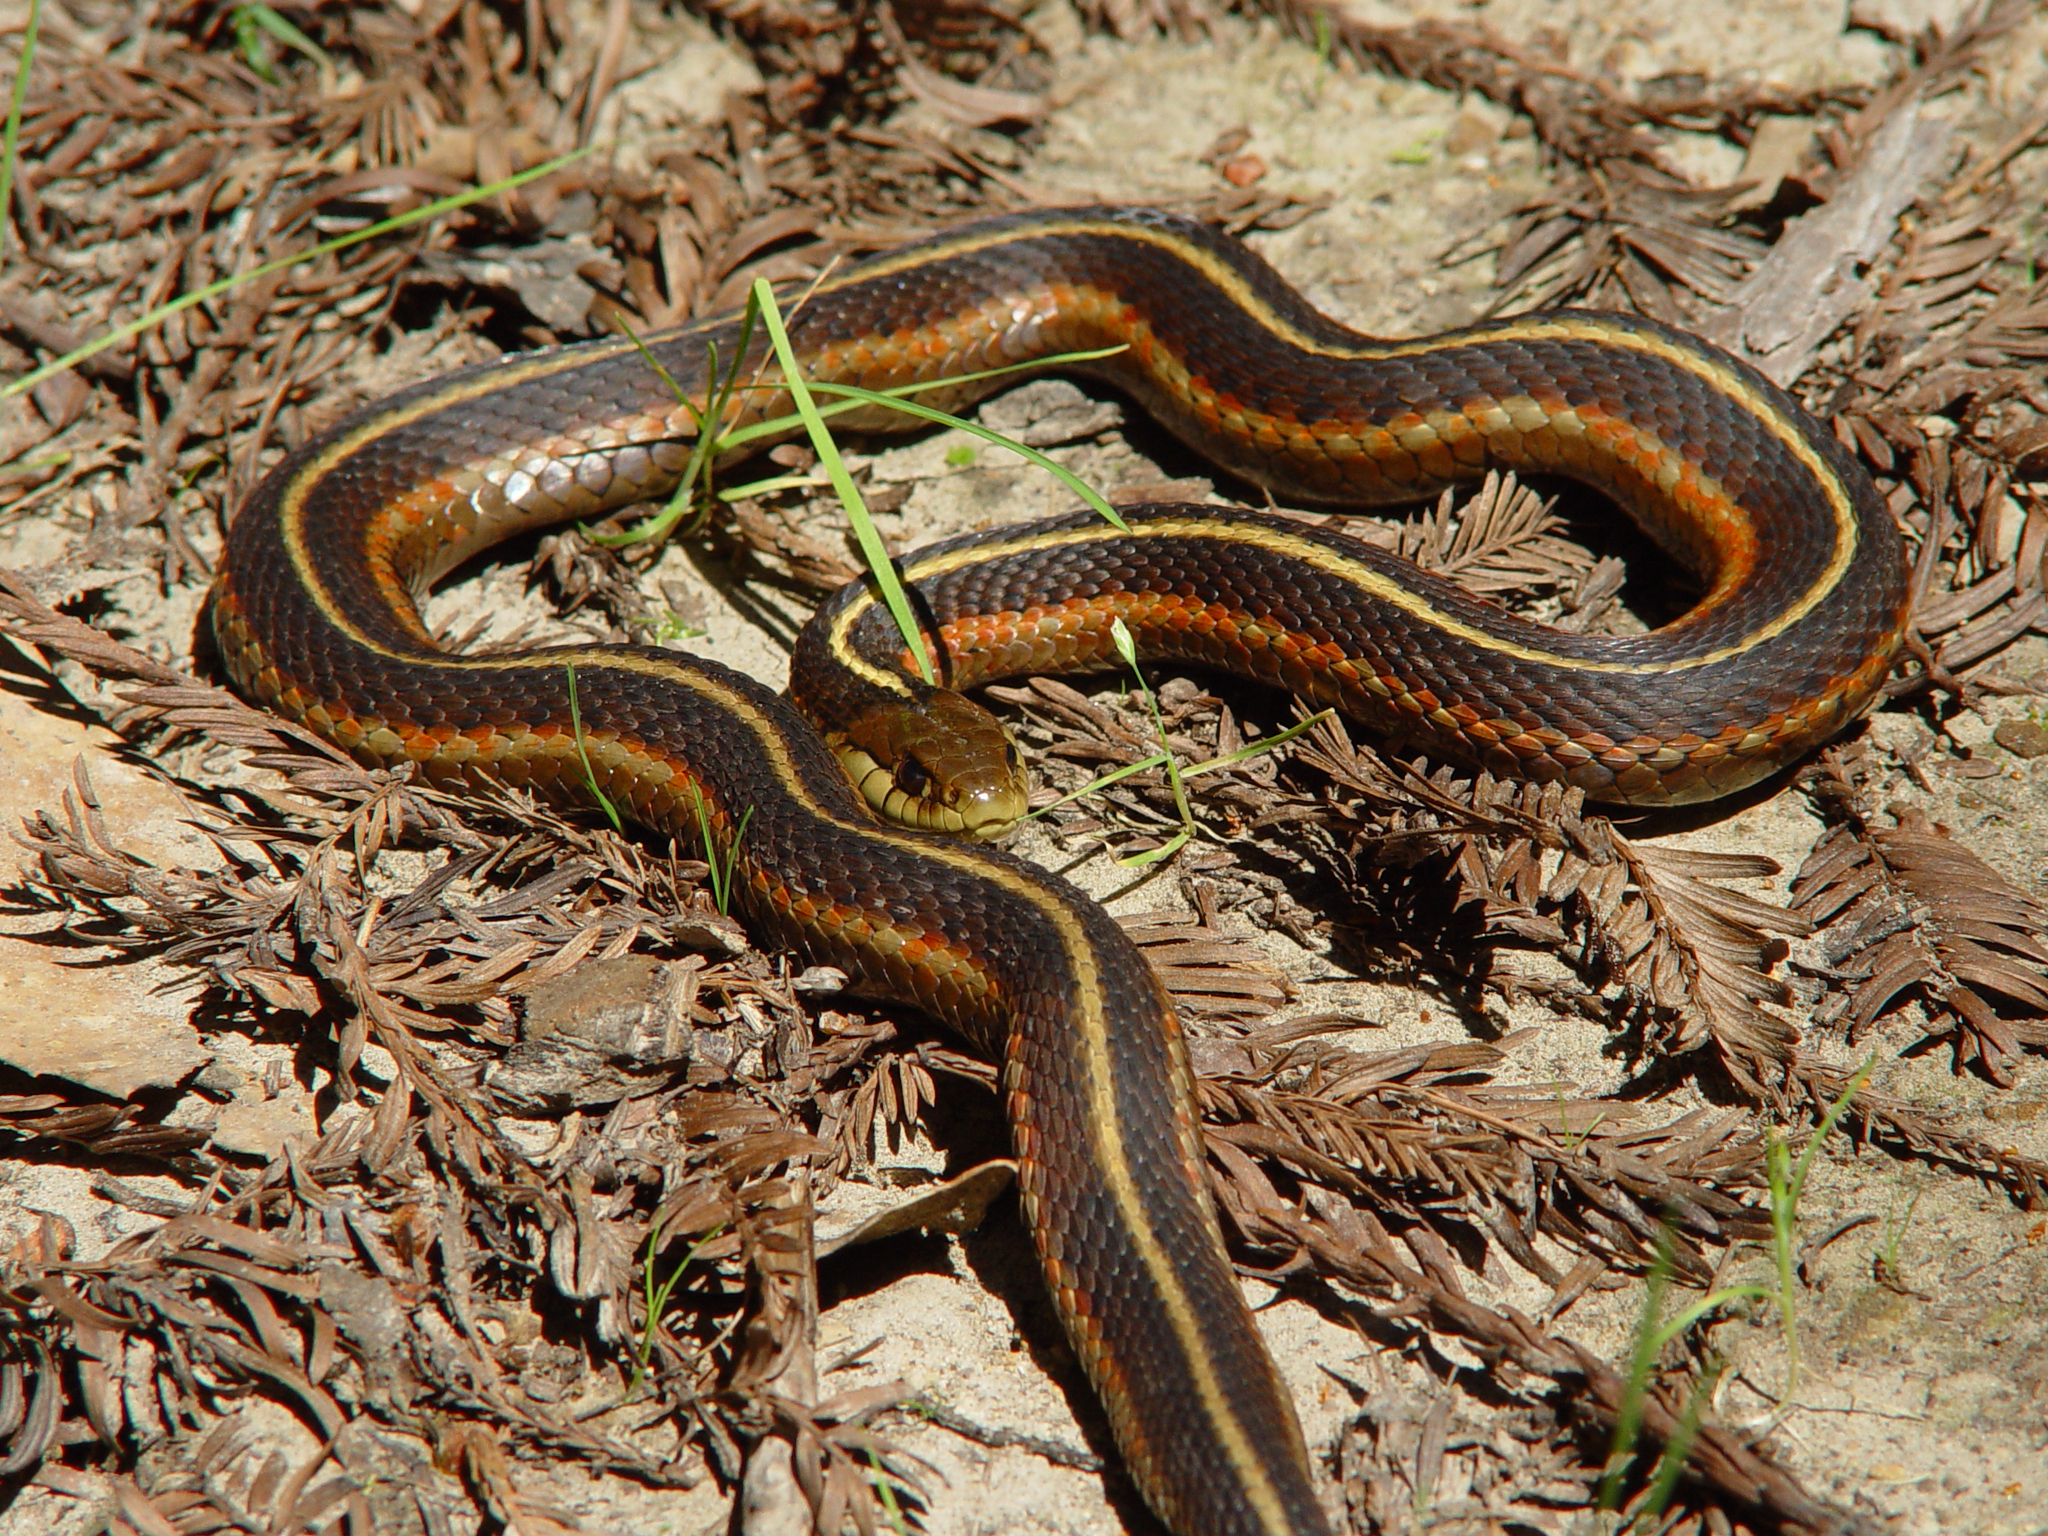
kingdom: Animalia
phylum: Chordata
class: Squamata
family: Colubridae
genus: Thamnophis
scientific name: Thamnophis elegans
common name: Western terrestrial garter snake
